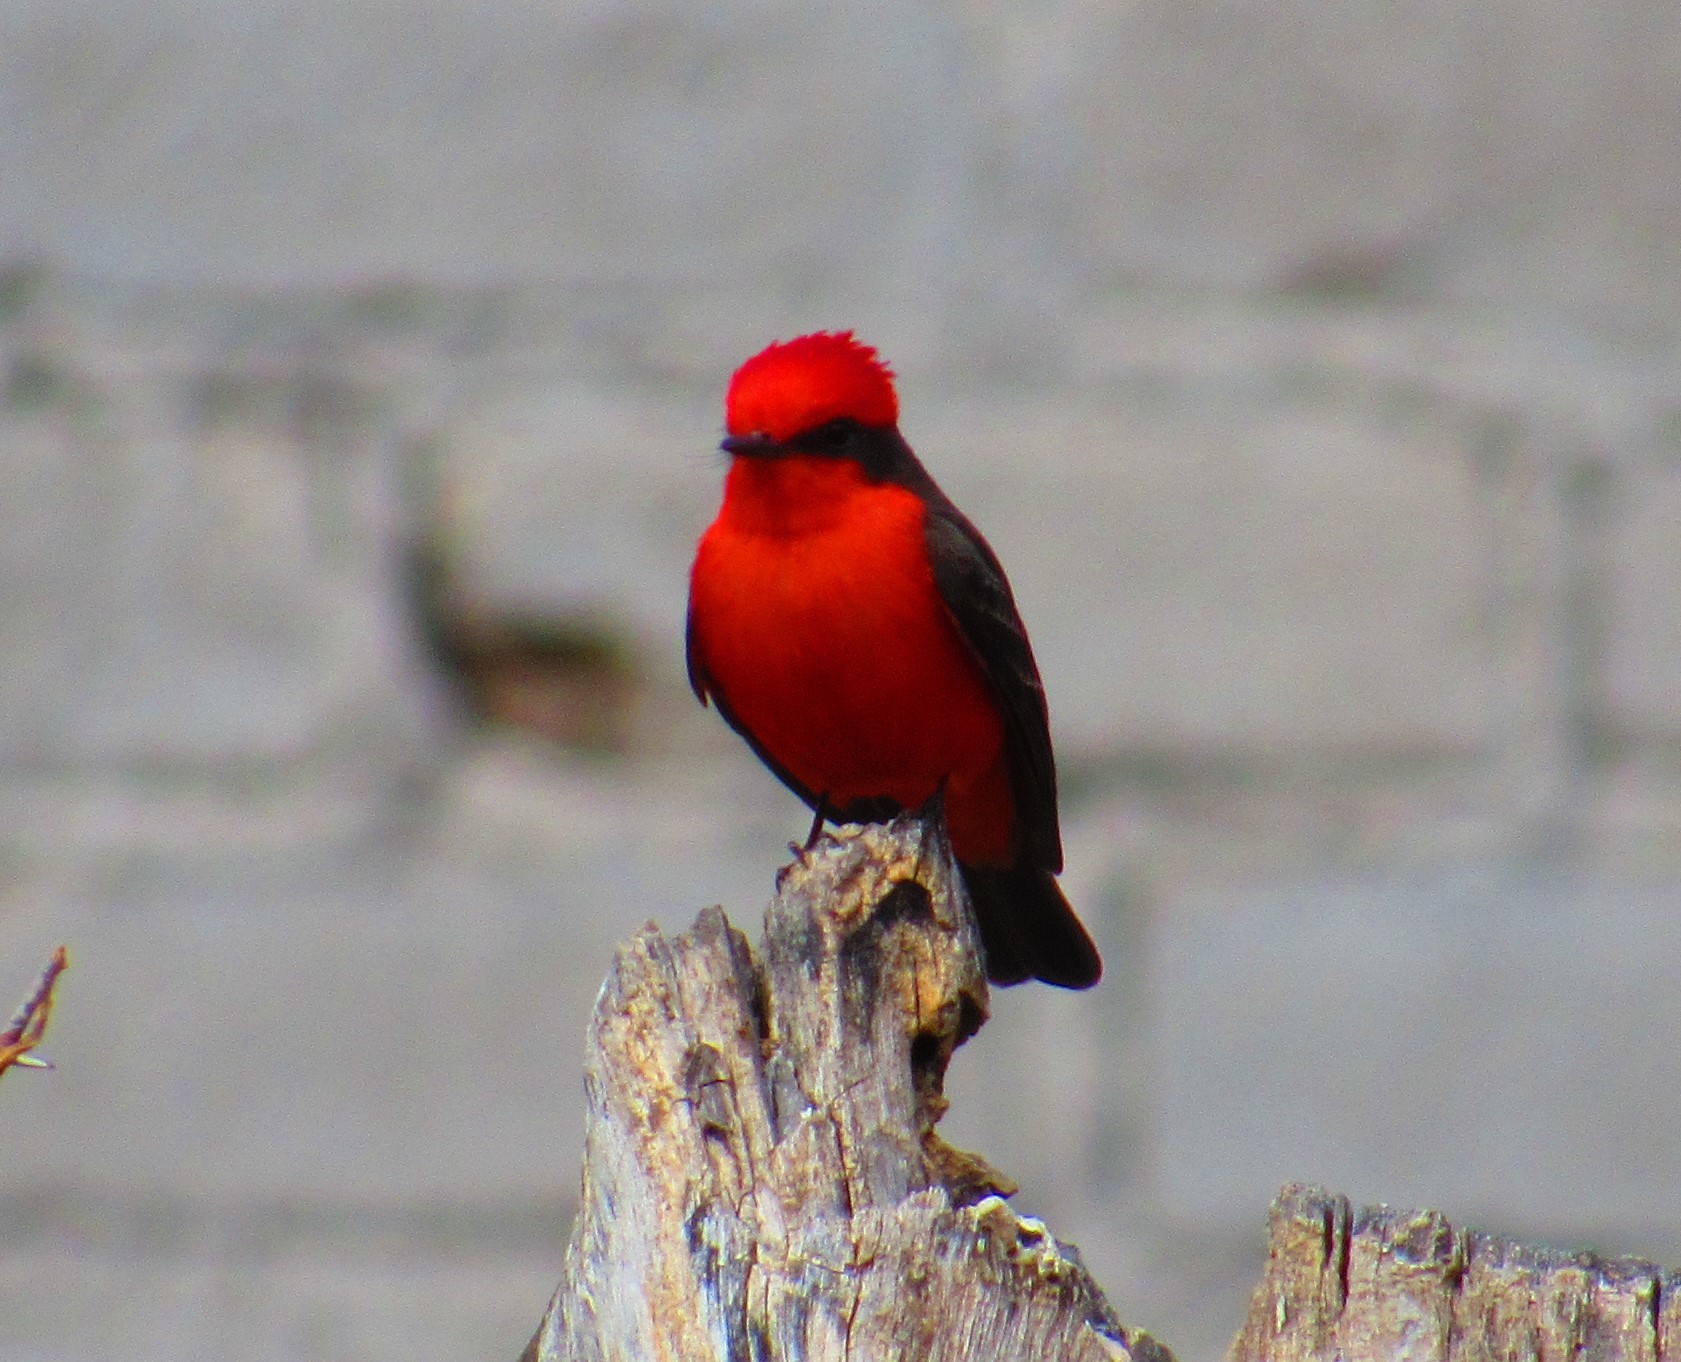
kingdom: Animalia
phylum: Chordata
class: Aves
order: Passeriformes
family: Tyrannidae
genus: Pyrocephalus
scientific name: Pyrocephalus rubinus
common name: Vermilion flycatcher
